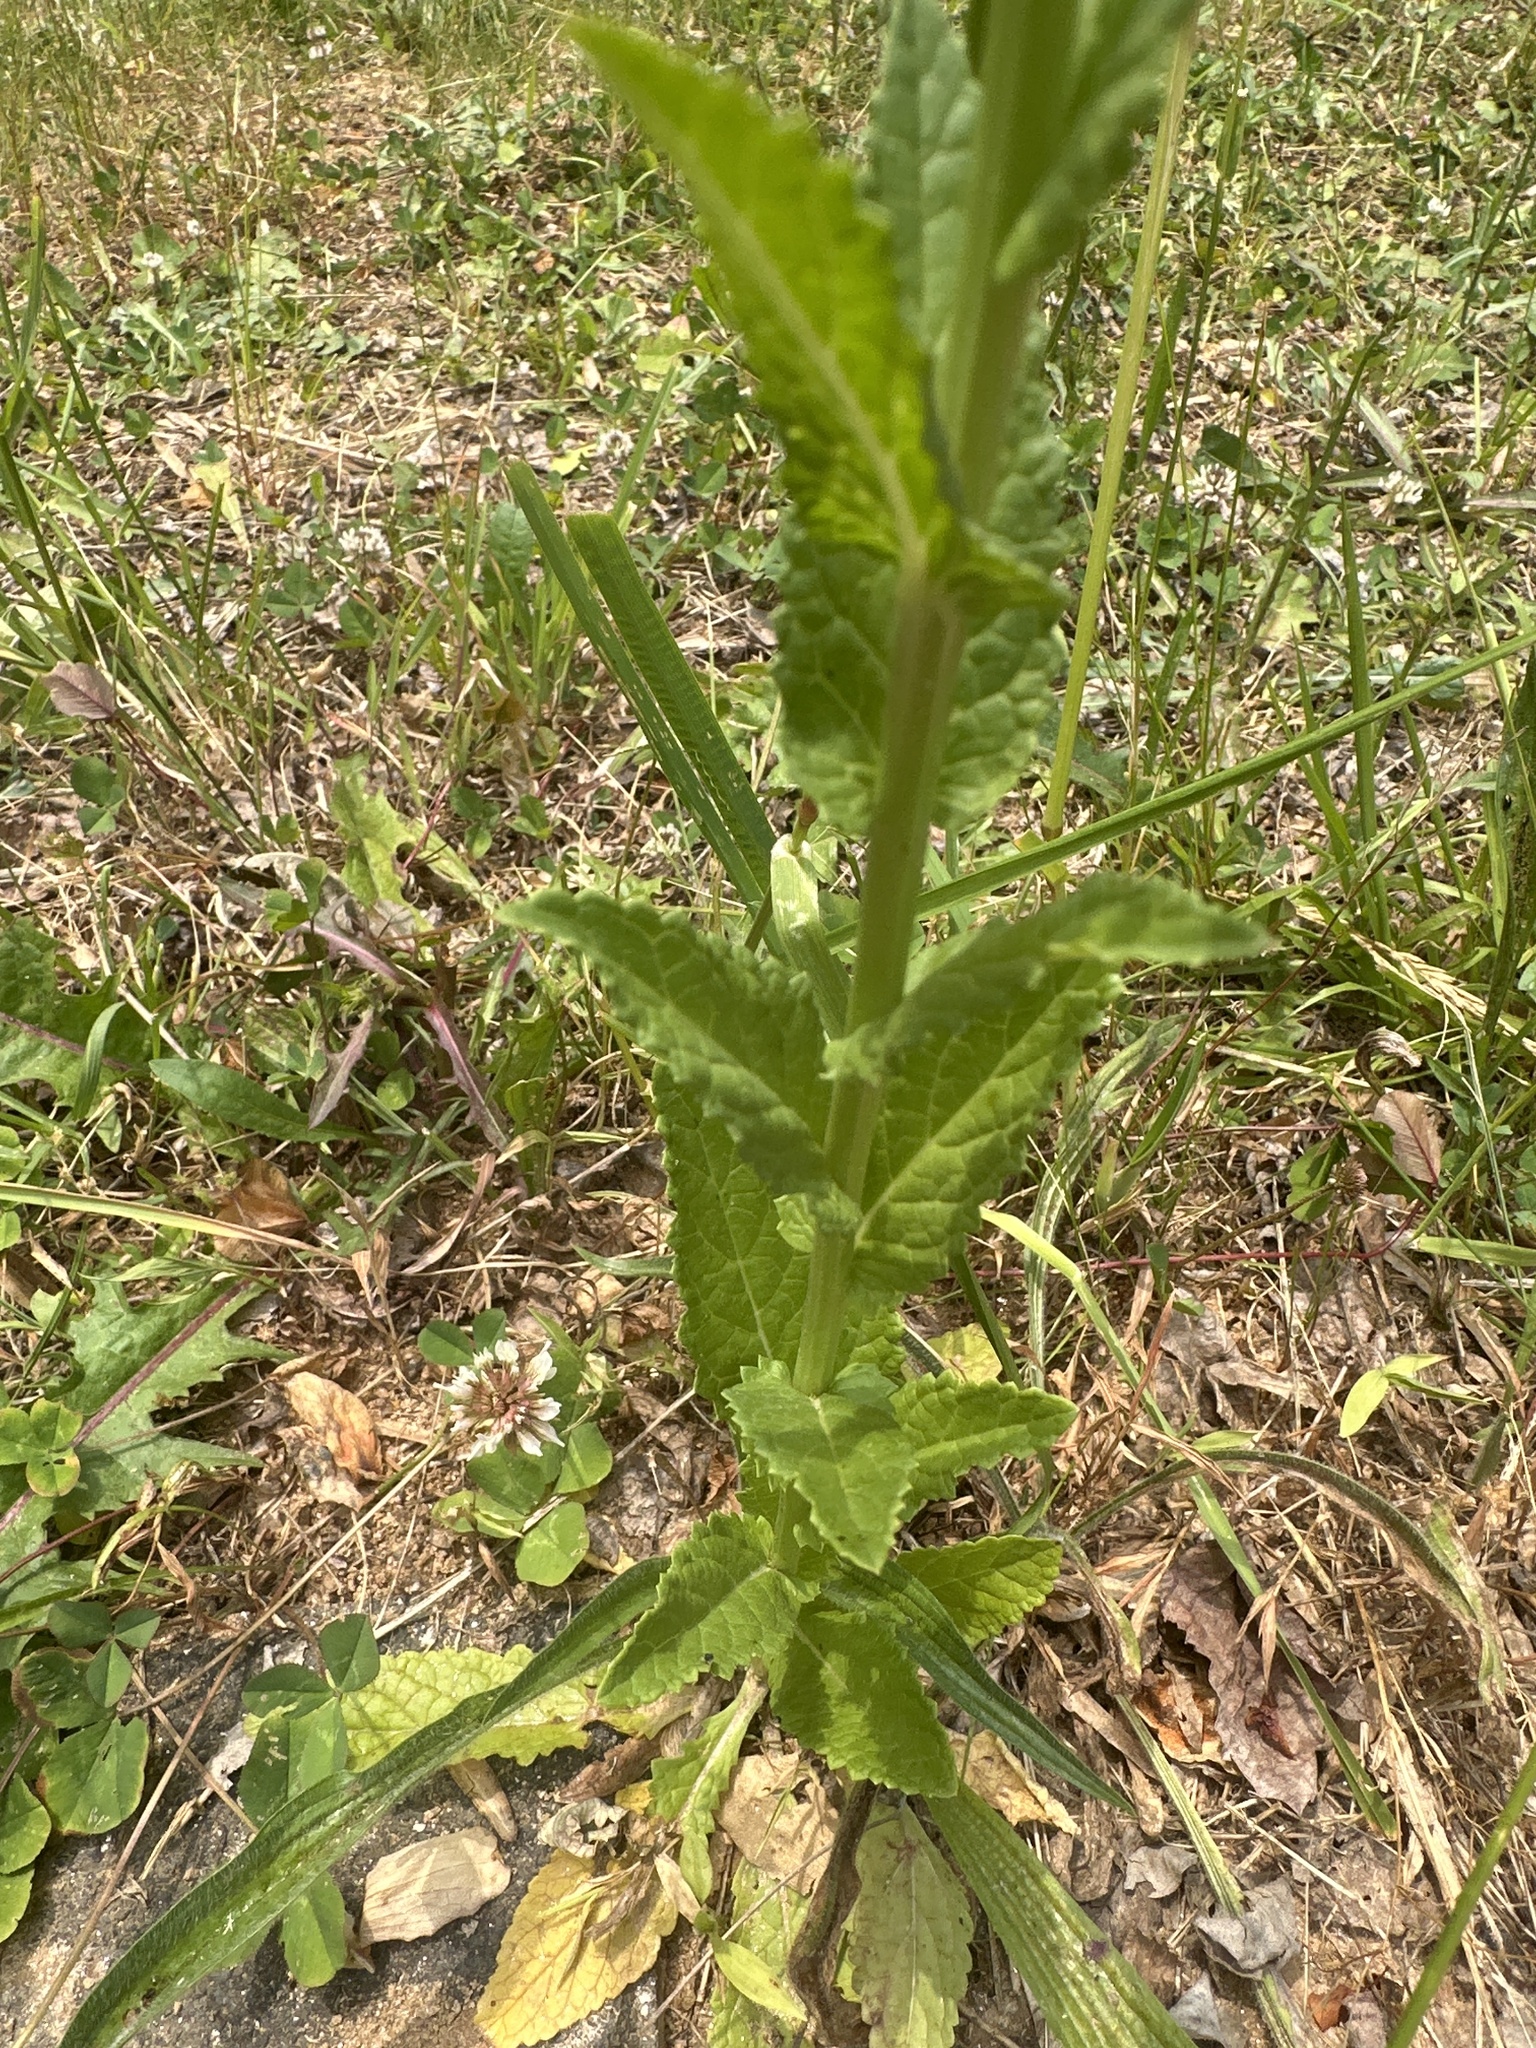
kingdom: Plantae
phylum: Tracheophyta
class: Magnoliopsida
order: Lamiales
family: Scrophulariaceae
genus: Verbascum
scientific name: Verbascum blattaria
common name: Moth mullein
